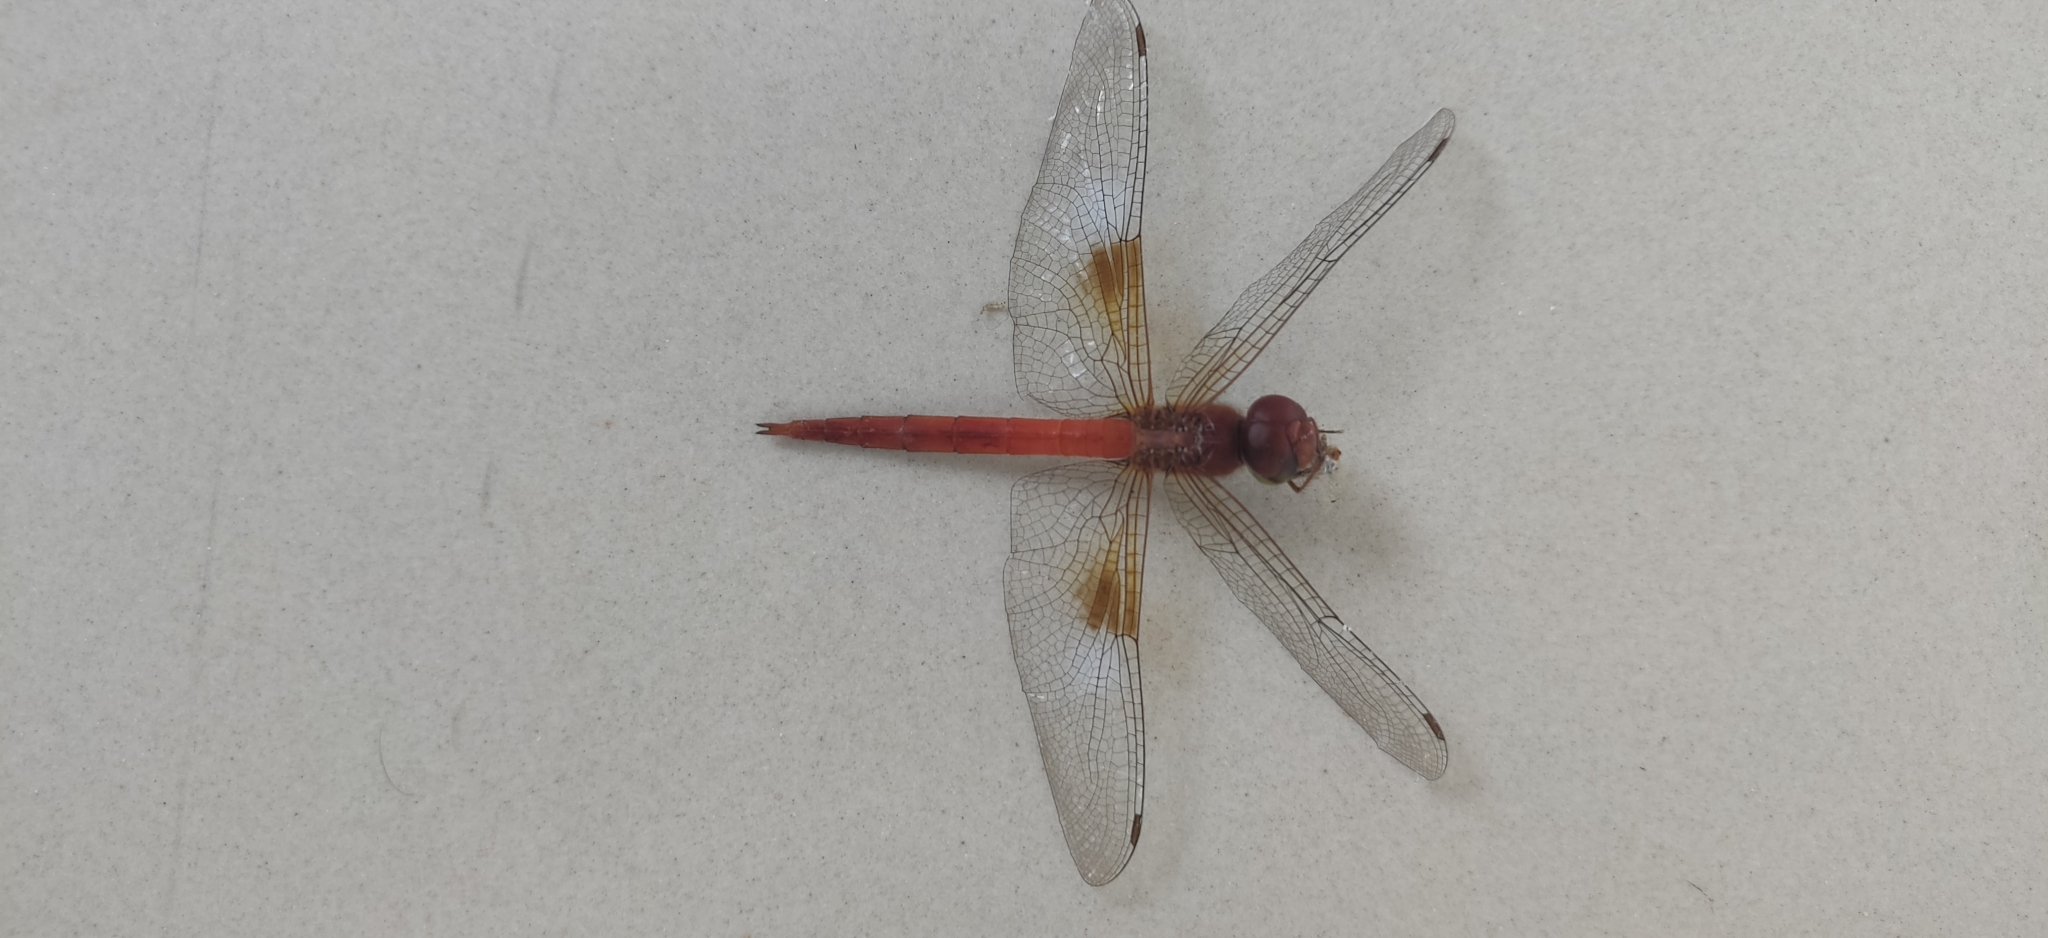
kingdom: Animalia
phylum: Arthropoda
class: Insecta
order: Odonata
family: Libellulidae
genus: Tholymis
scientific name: Tholymis tillarga
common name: Coral-tailed cloud wing
